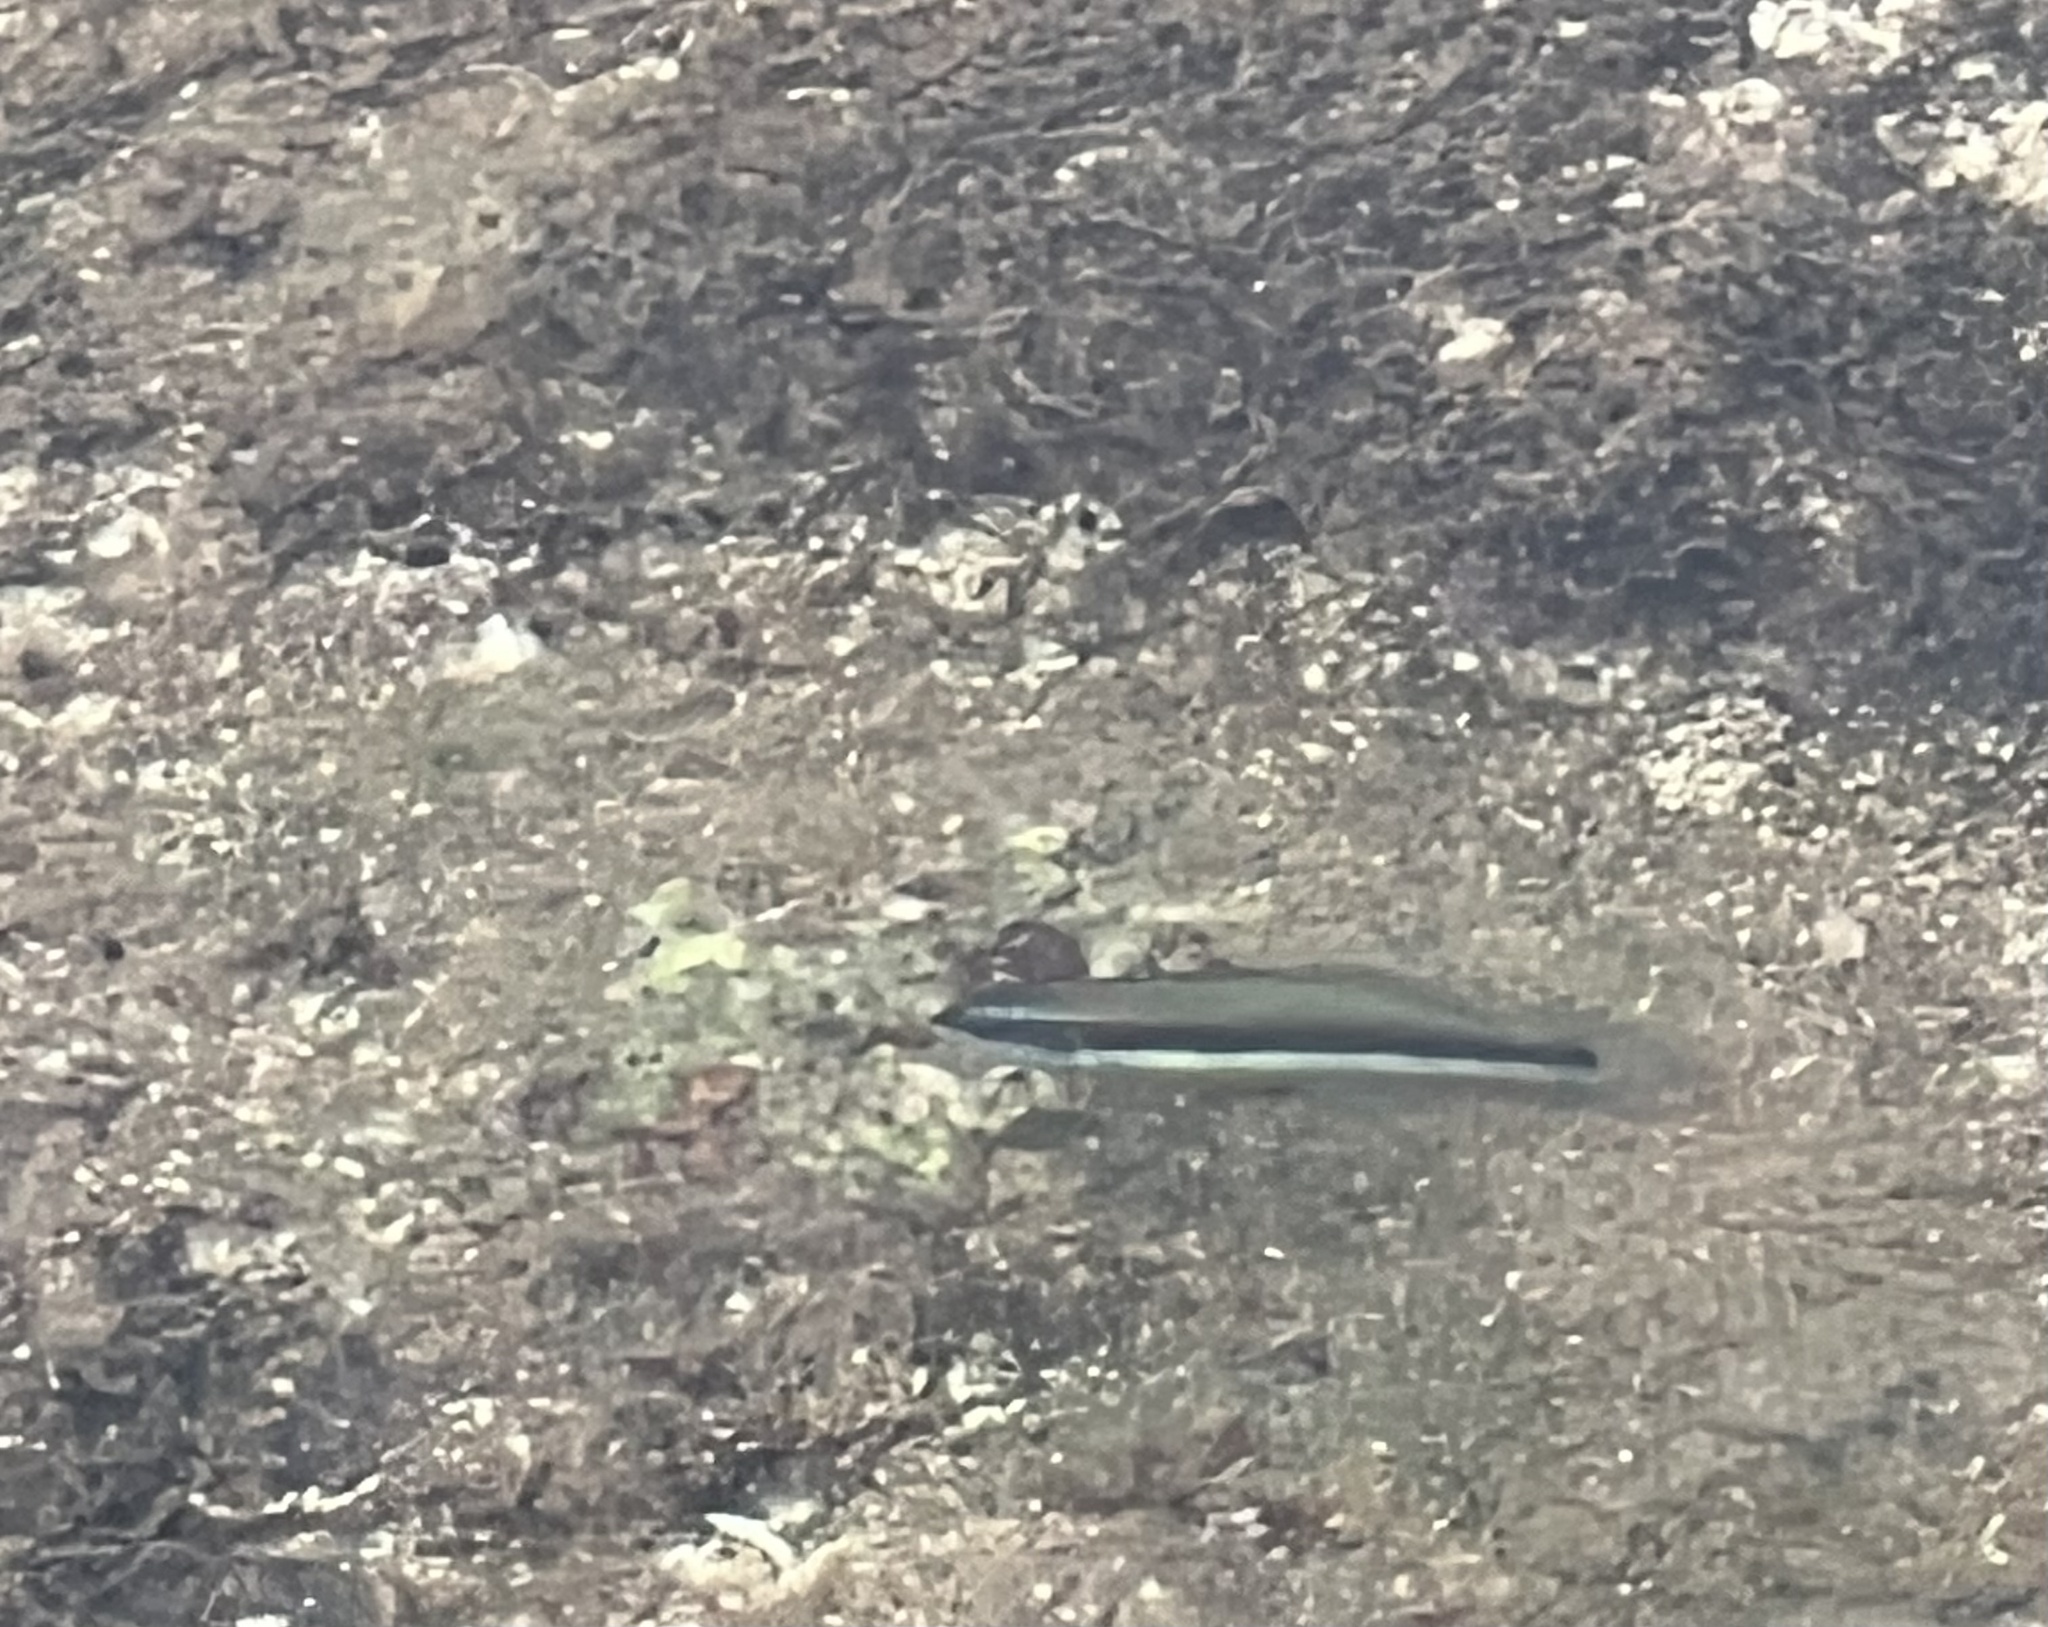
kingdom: Animalia
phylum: Chordata
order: Perciformes
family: Labridae
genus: Thalassoma
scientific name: Thalassoma duperrey
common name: Saddle wrasse
